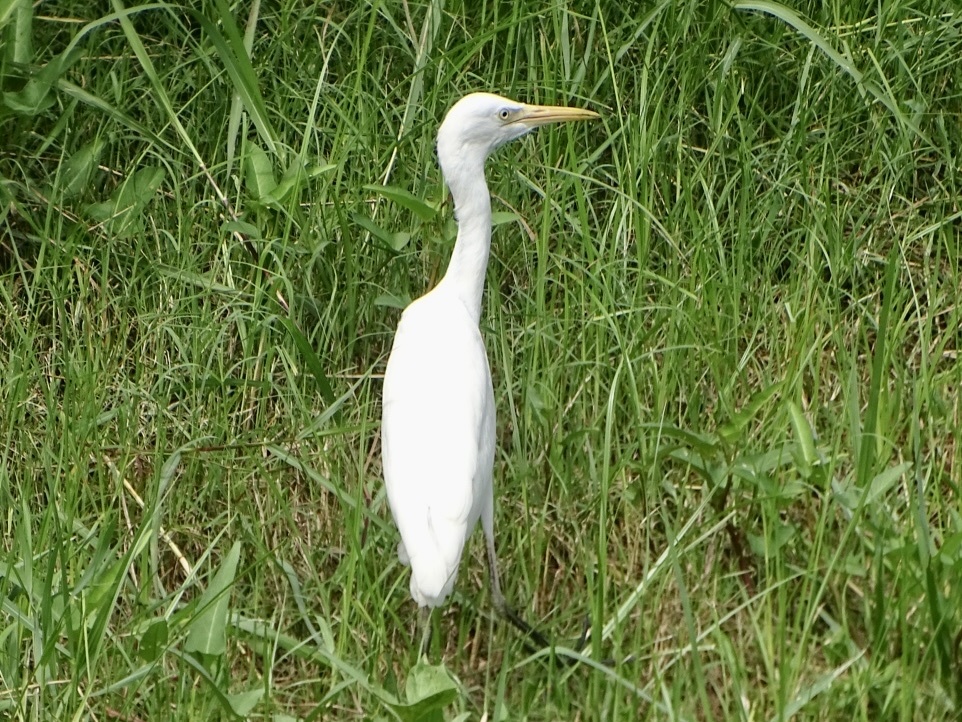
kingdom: Animalia
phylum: Chordata
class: Aves
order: Pelecaniformes
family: Ardeidae
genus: Bubulcus
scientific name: Bubulcus coromandus
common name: Eastern cattle egret
